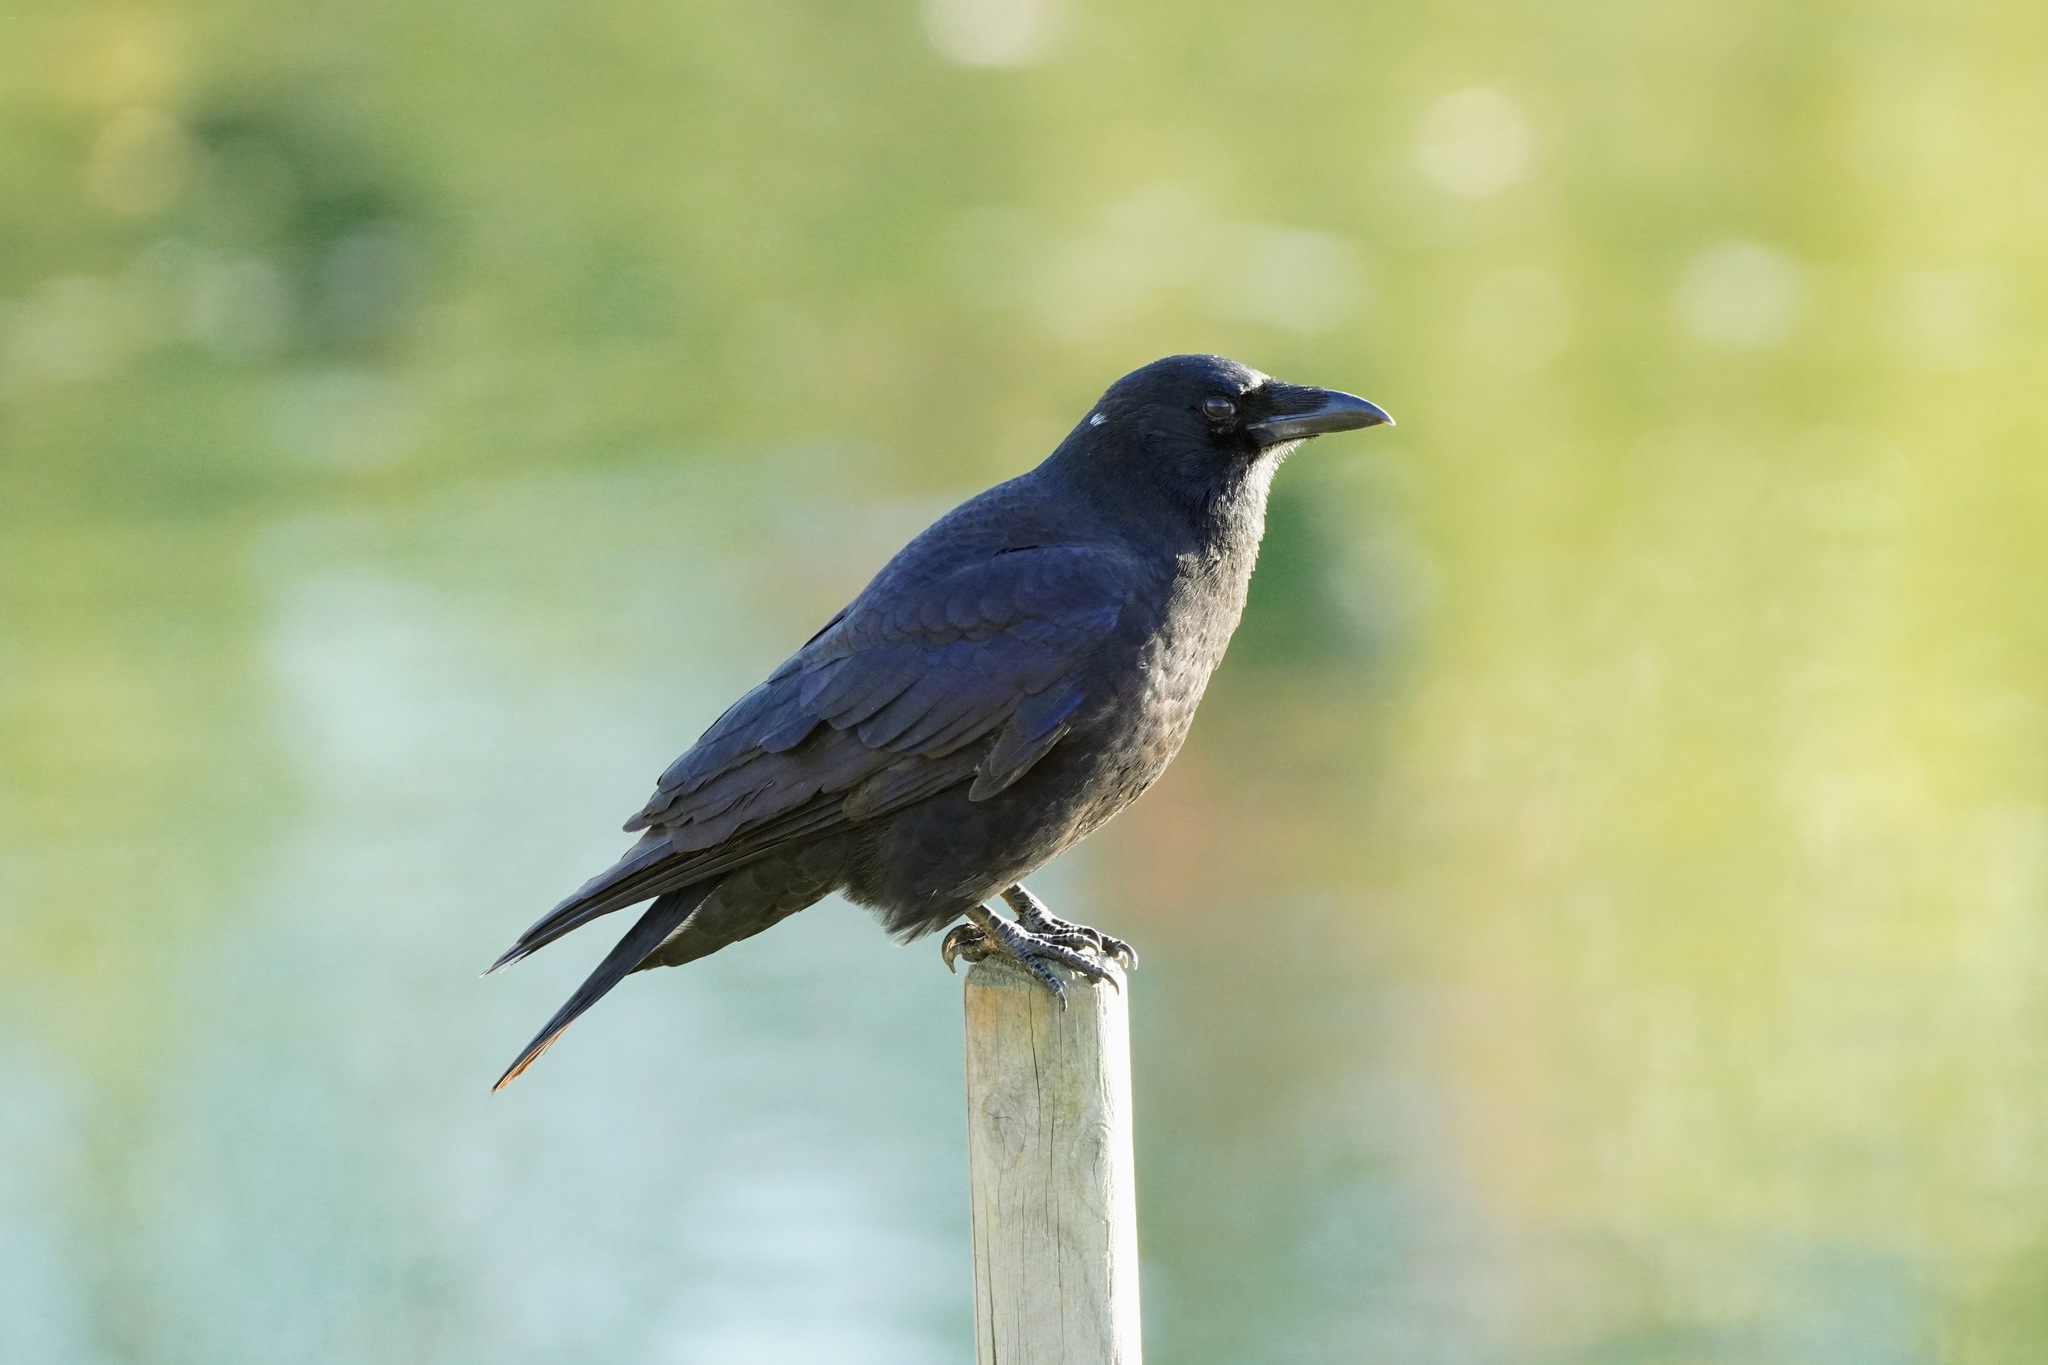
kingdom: Animalia
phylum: Chordata
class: Aves
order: Passeriformes
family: Corvidae
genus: Corvus
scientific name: Corvus brachyrhynchos
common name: American crow
